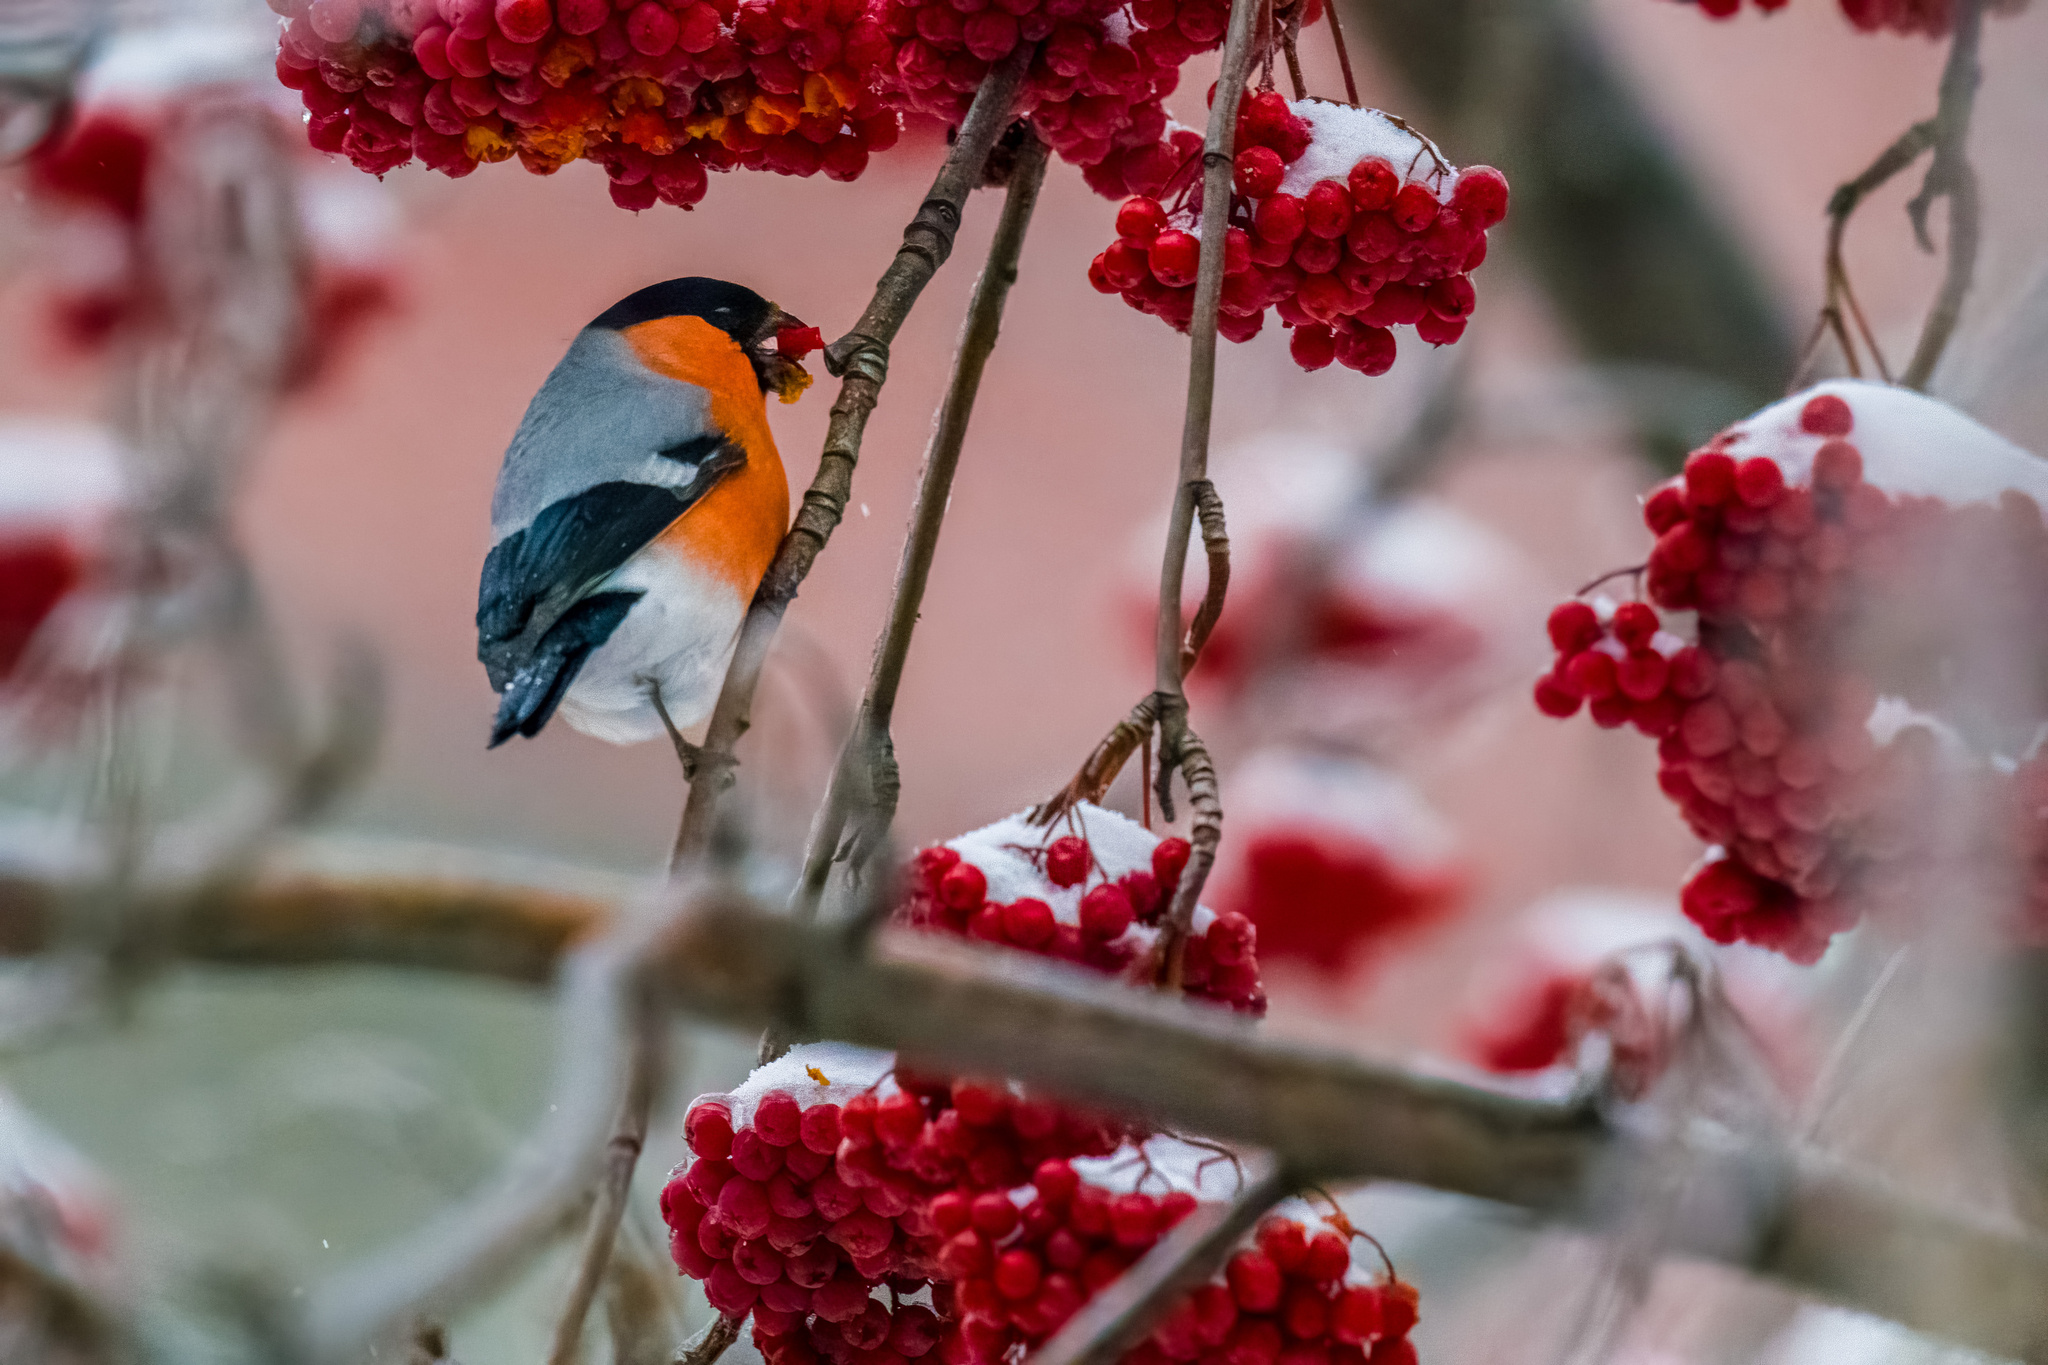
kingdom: Animalia
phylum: Chordata
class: Aves
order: Passeriformes
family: Fringillidae
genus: Pyrrhula
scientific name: Pyrrhula pyrrhula
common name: Eurasian bullfinch
